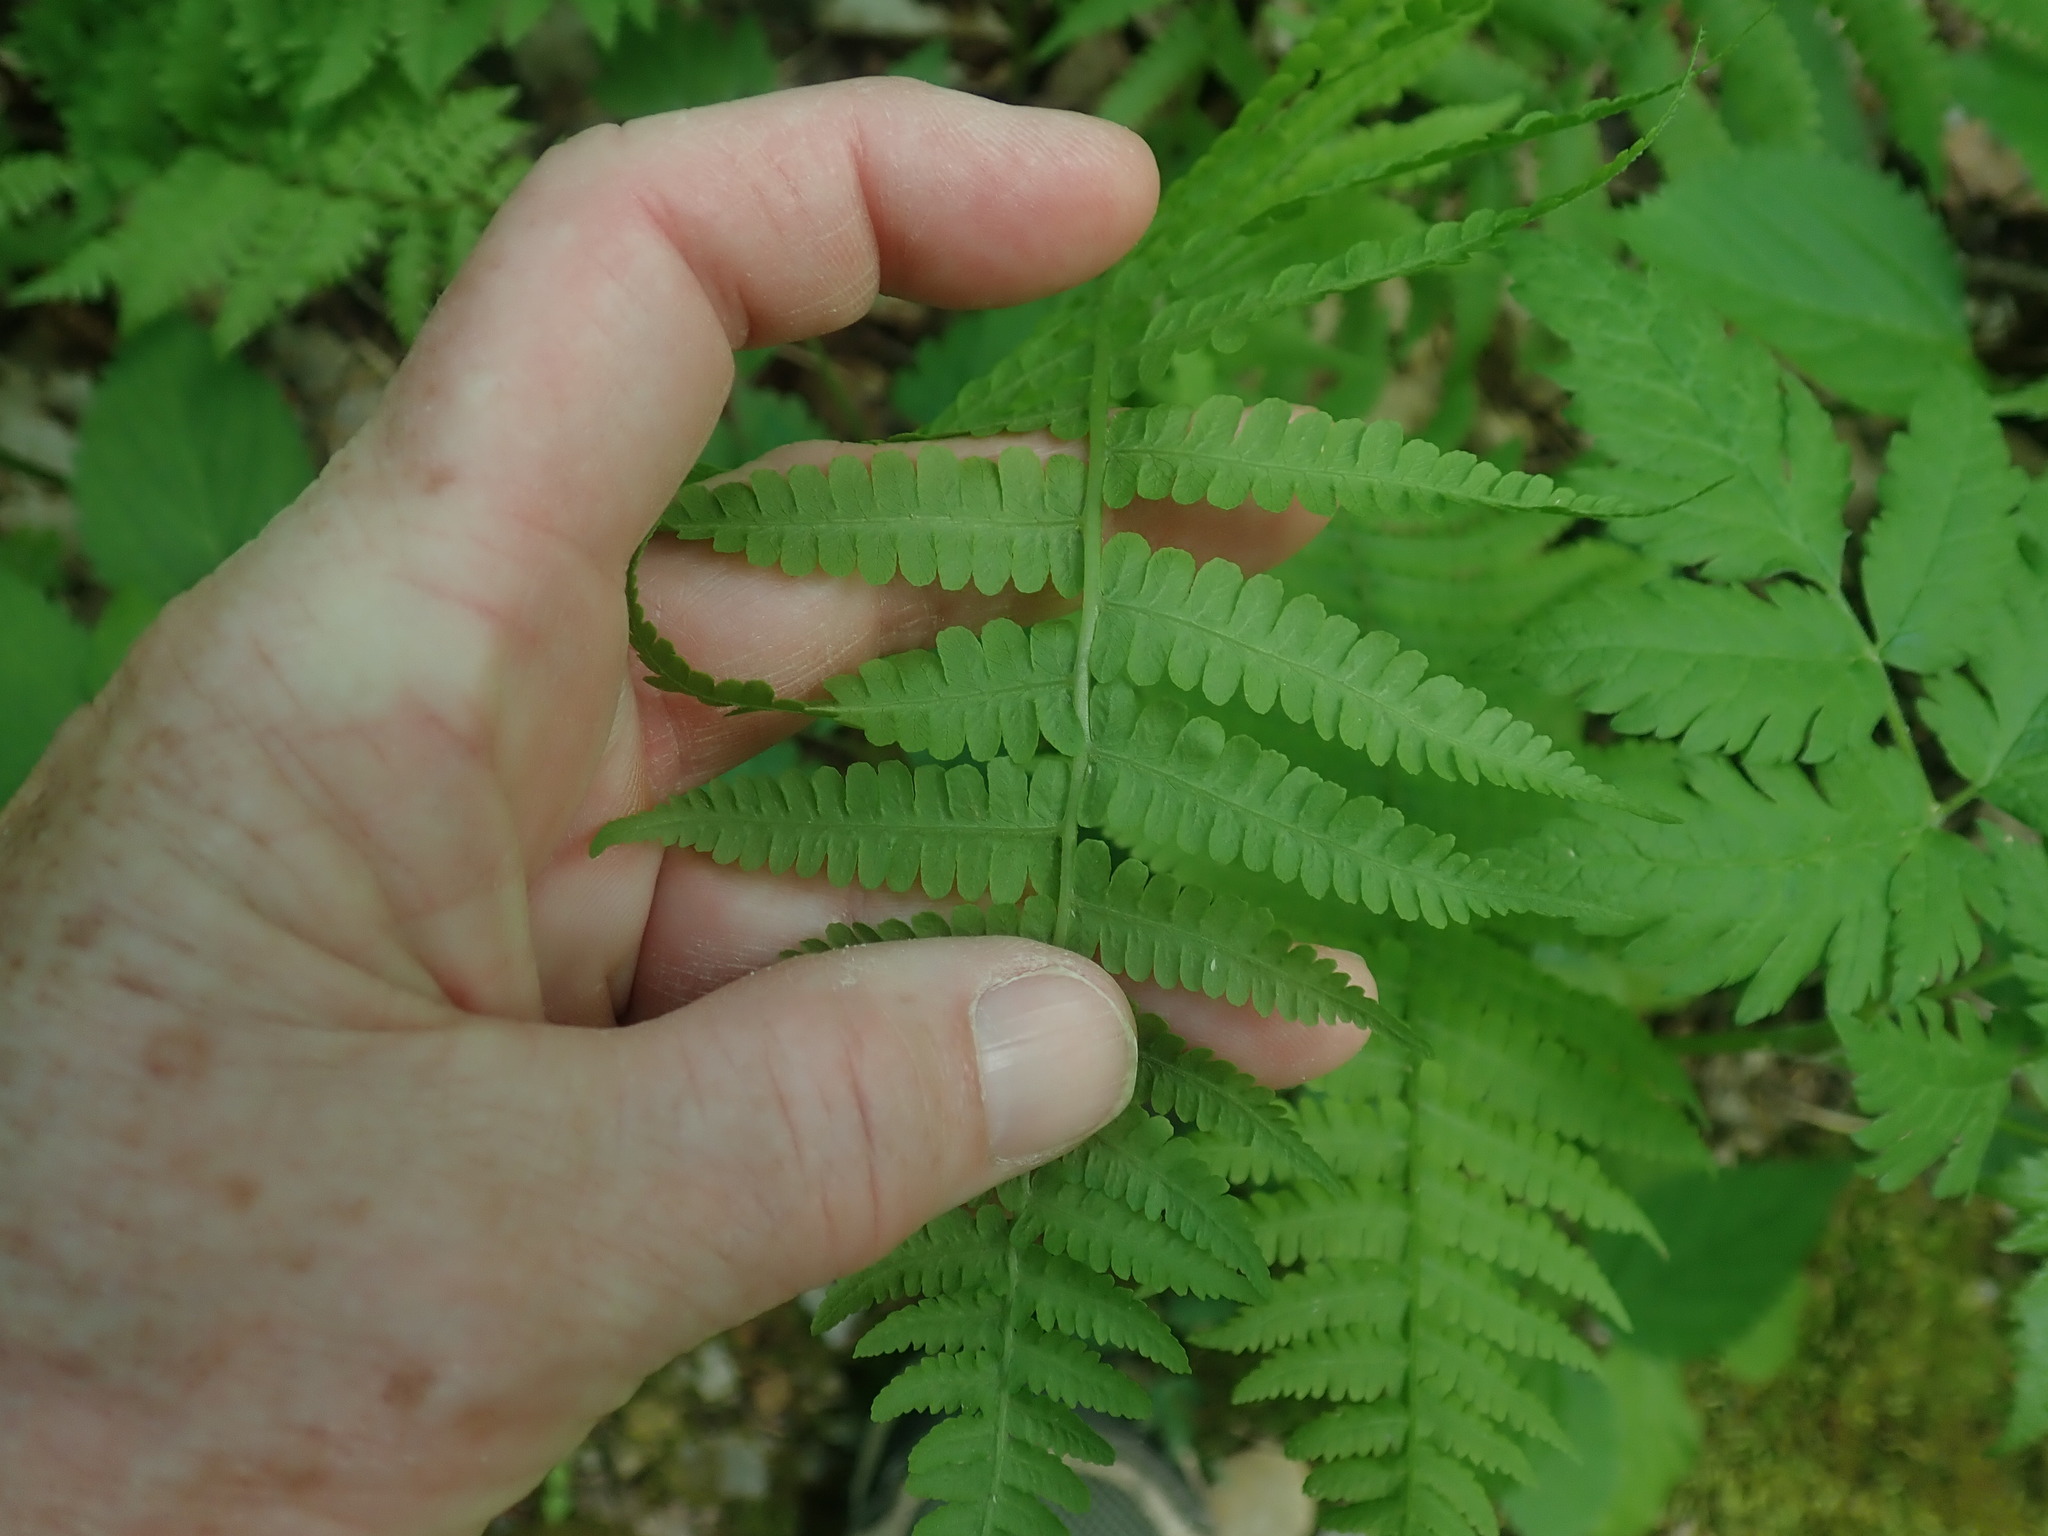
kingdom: Plantae
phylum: Tracheophyta
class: Polypodiopsida
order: Polypodiales
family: Athyriaceae
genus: Deparia
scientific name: Deparia acrostichoides
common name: Silver false spleenwort
